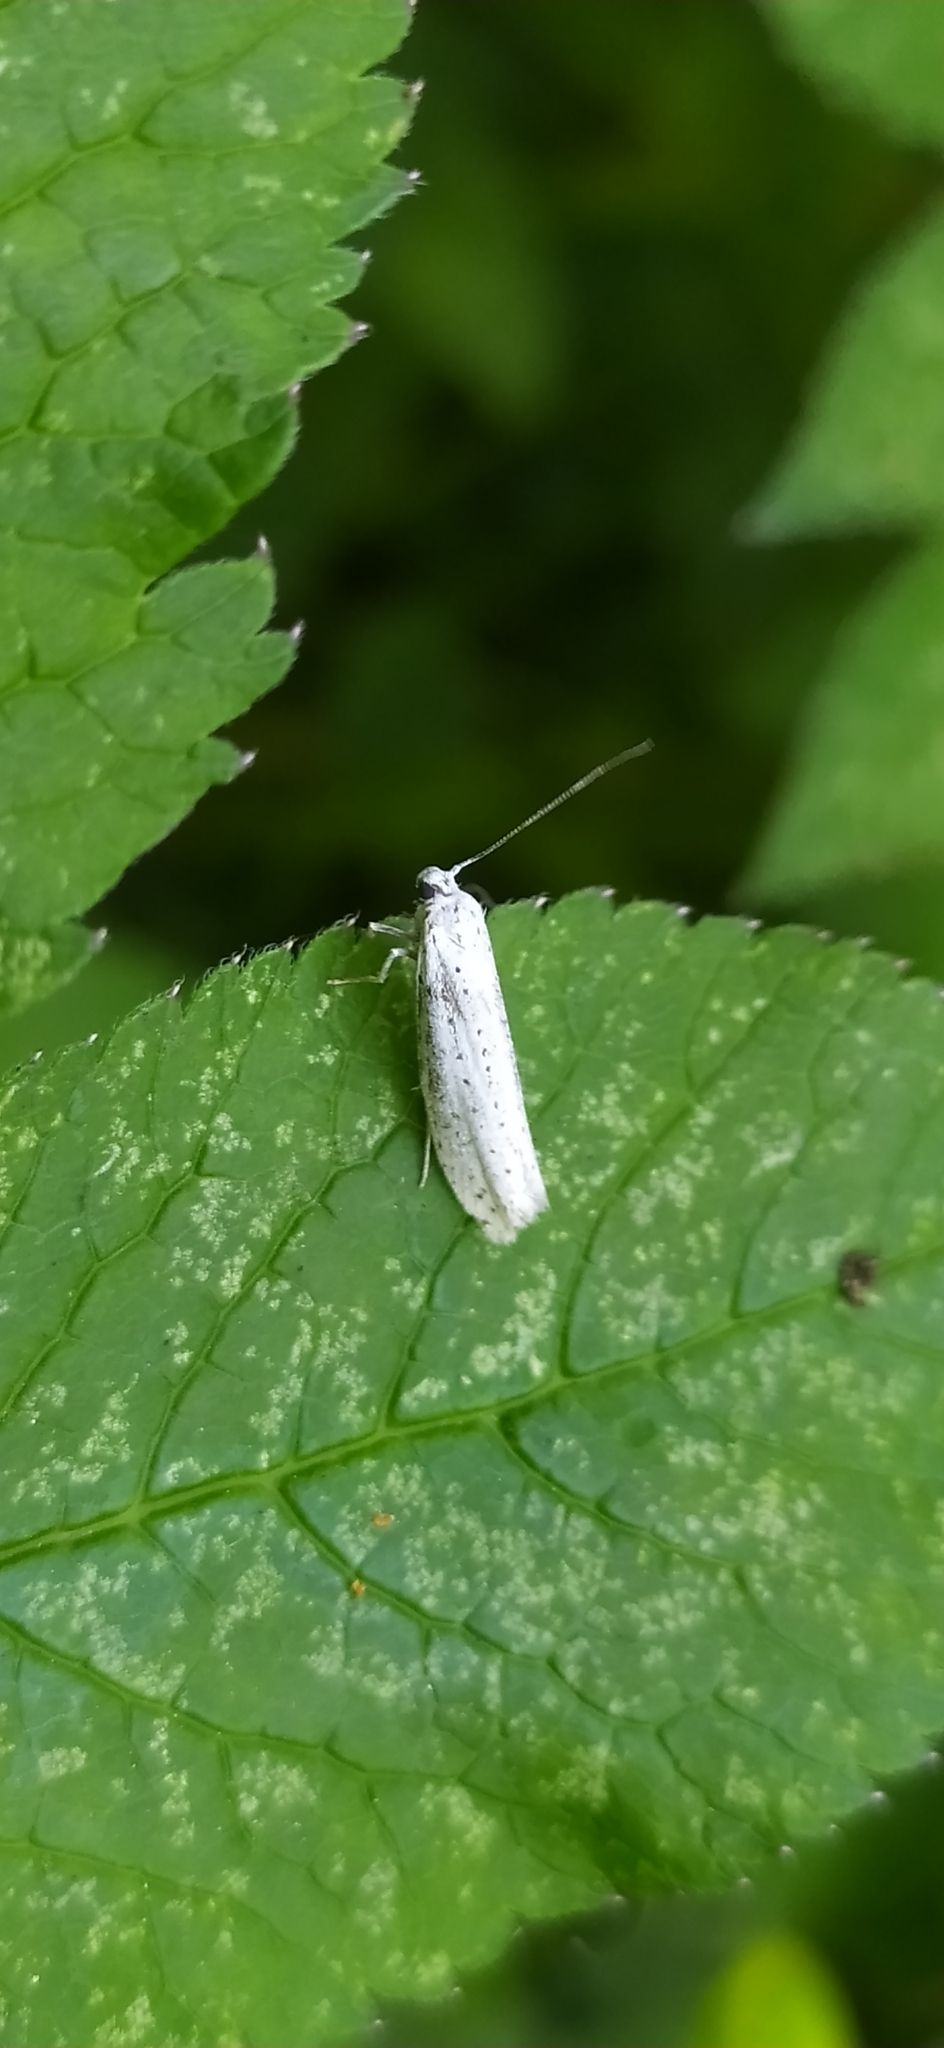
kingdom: Animalia
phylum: Arthropoda
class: Insecta
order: Lepidoptera
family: Yponomeutidae
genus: Yponomeuta
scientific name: Yponomeuta evonymella
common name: Bird-cherry ermine
